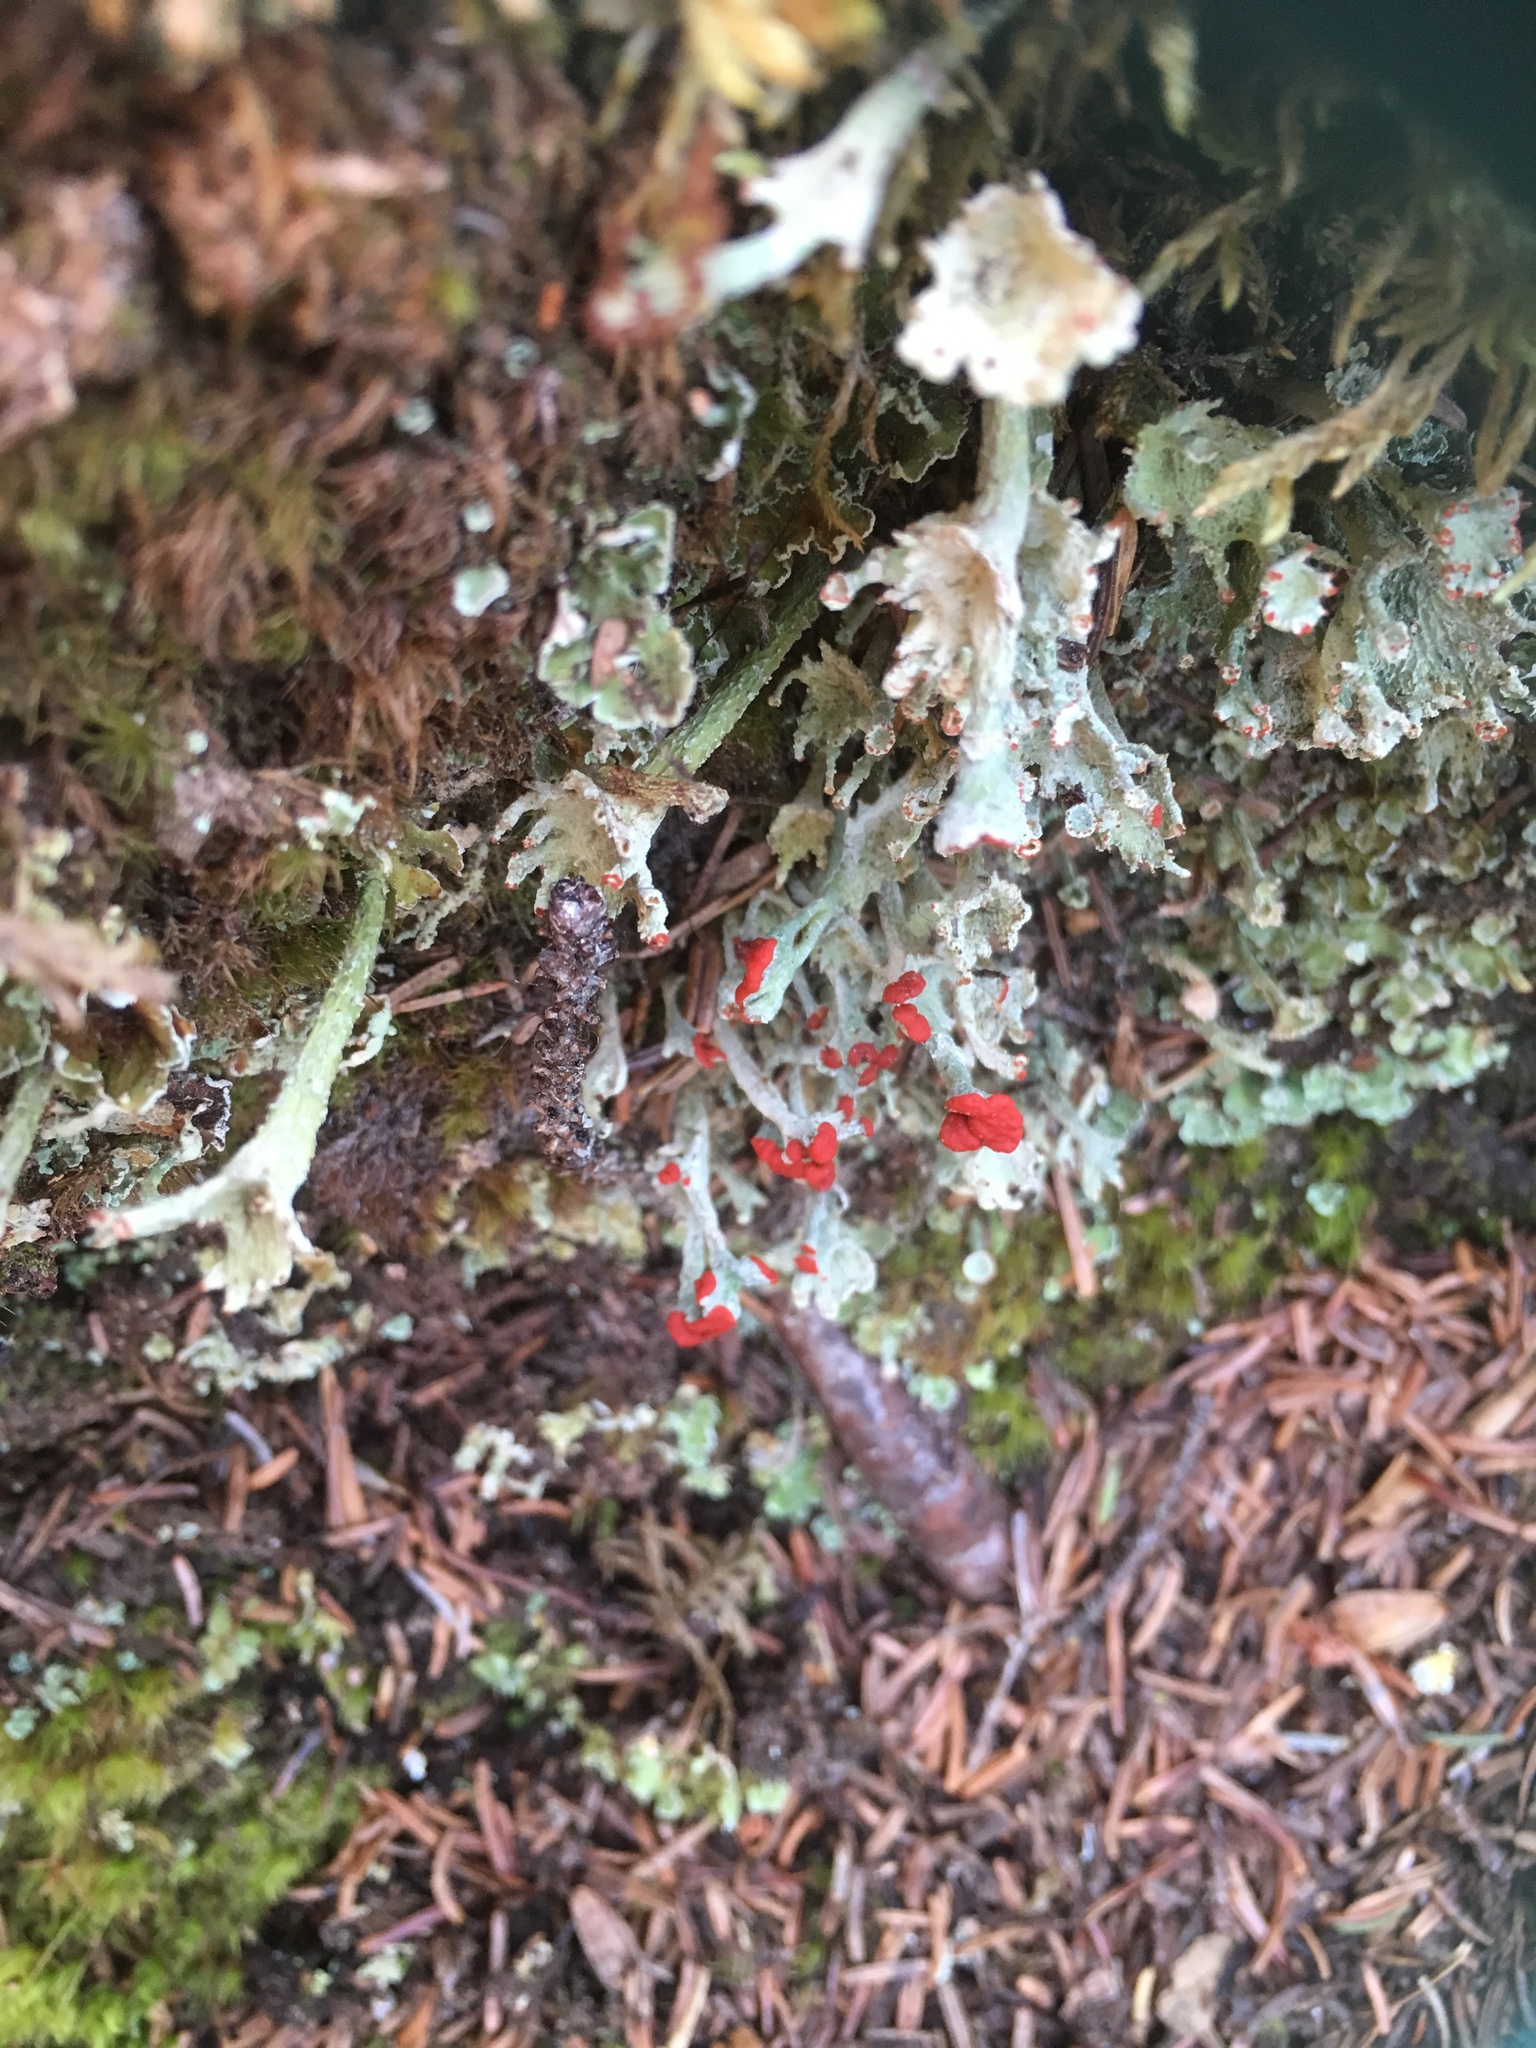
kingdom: Fungi
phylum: Ascomycota
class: Lecanoromycetes
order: Lecanorales
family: Cladoniaceae
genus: Cladonia
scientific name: Cladonia cristatella
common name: British soldier lichen
